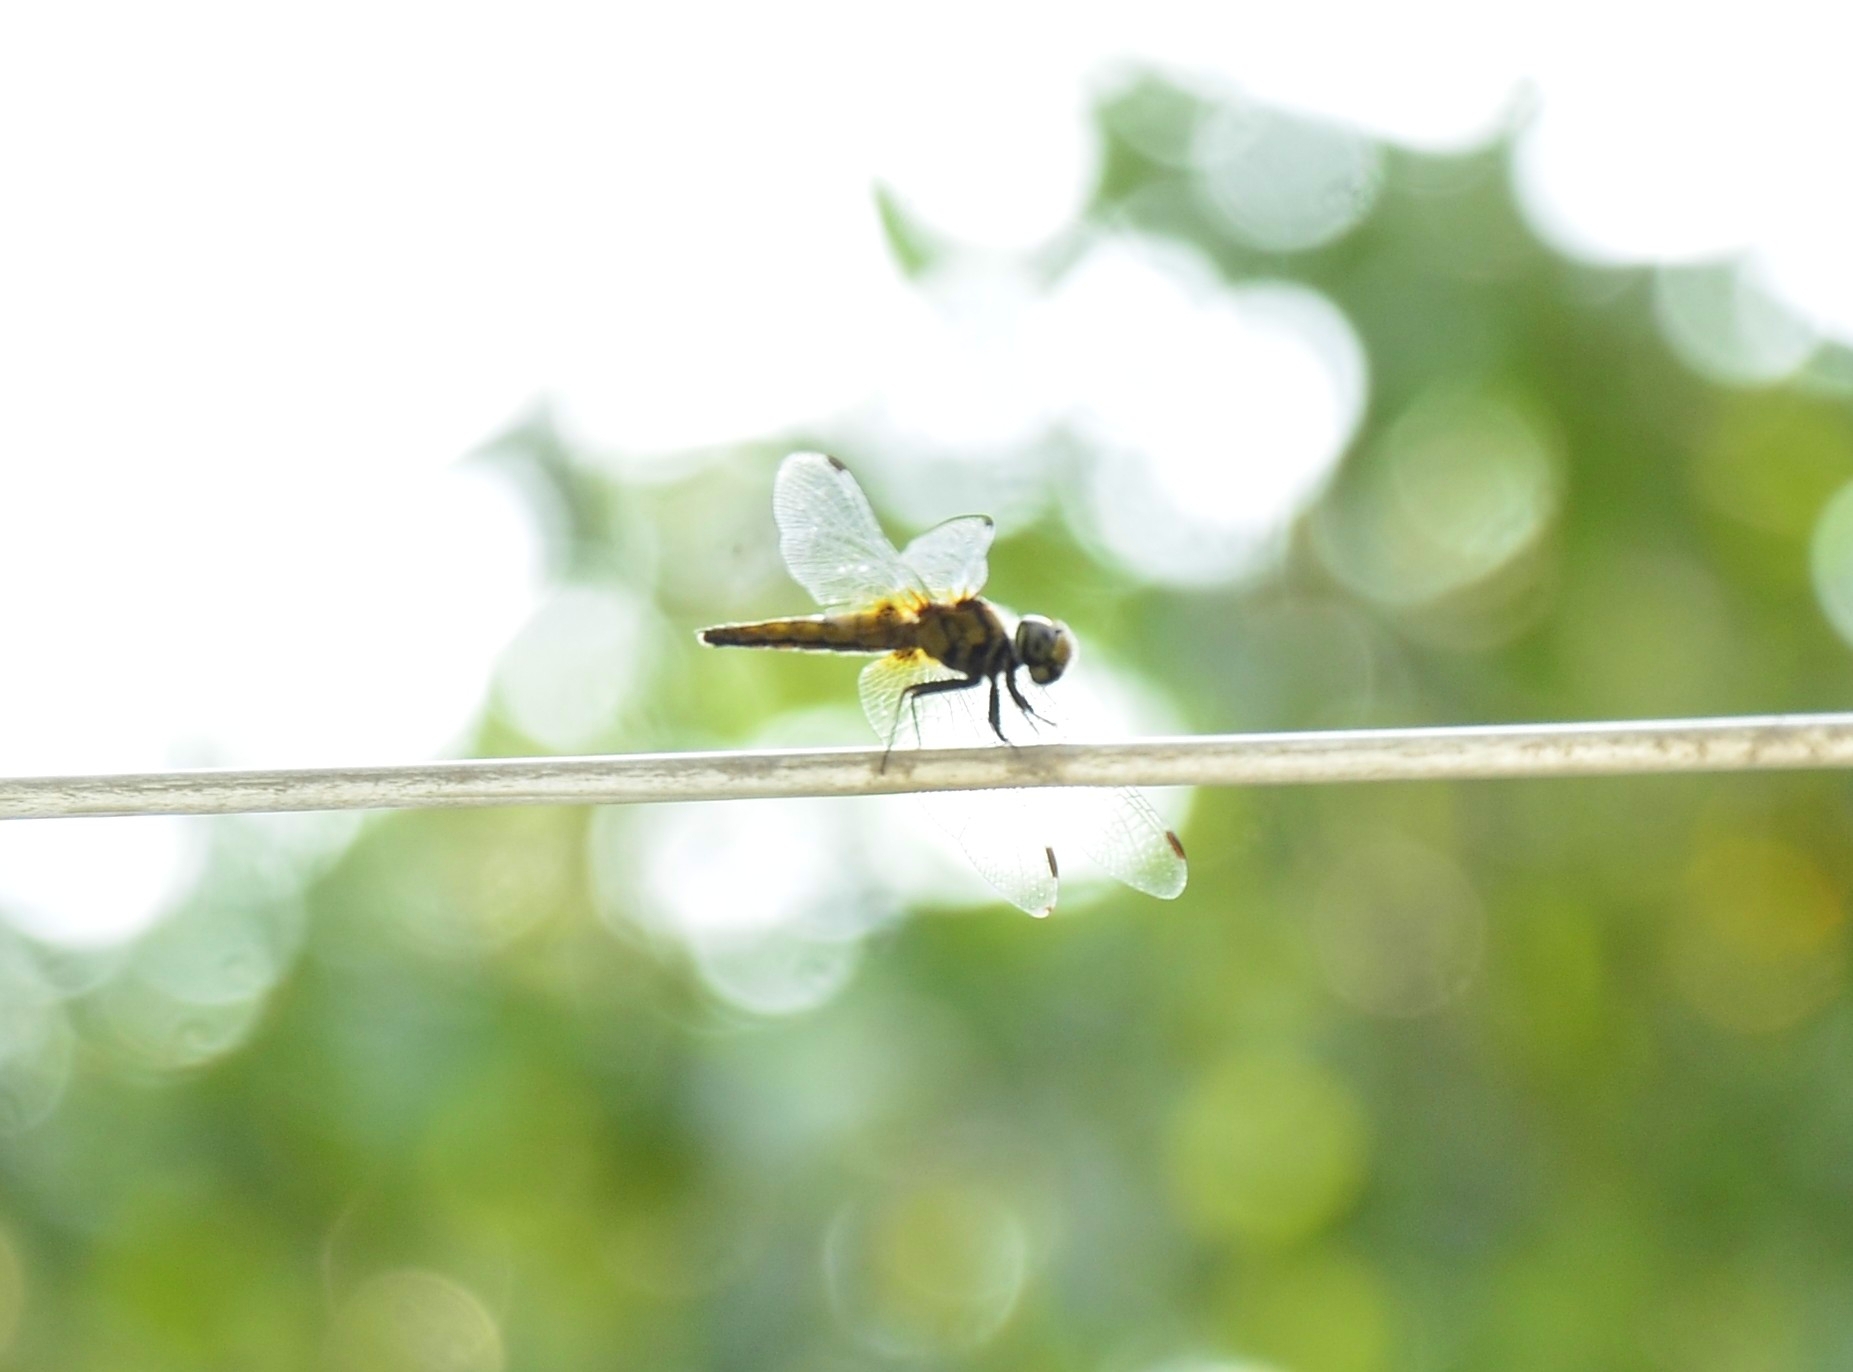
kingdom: Animalia
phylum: Arthropoda
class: Insecta
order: Odonata
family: Libellulidae
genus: Aethriamanta
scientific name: Aethriamanta brevipennis
